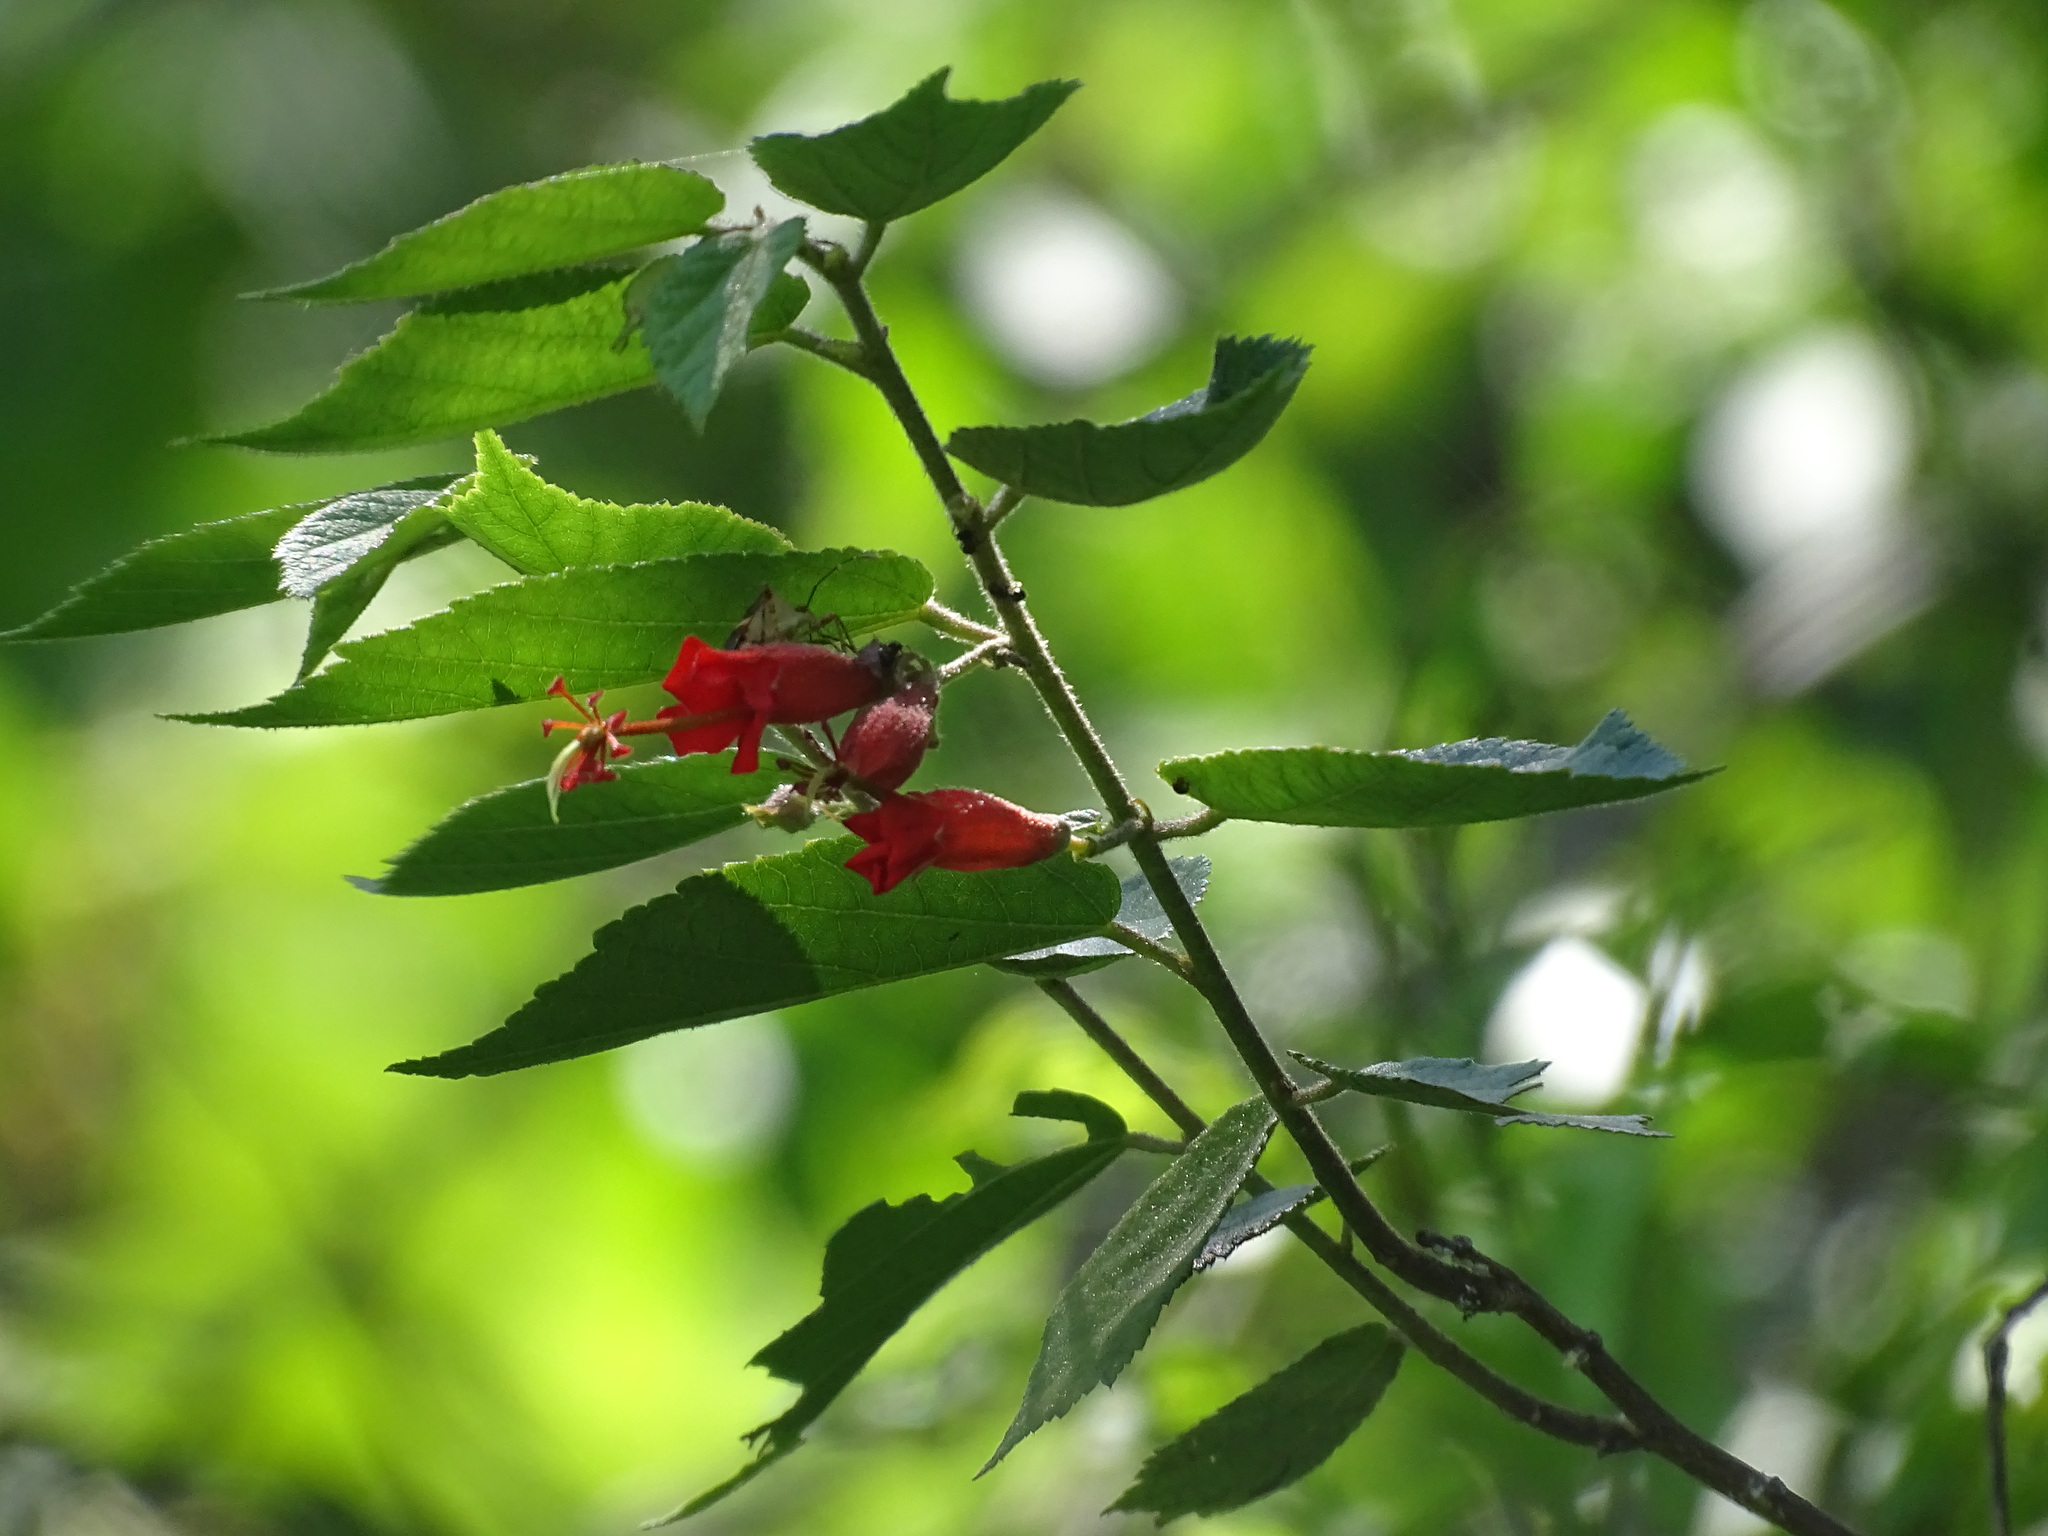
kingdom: Plantae
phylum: Tracheophyta
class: Magnoliopsida
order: Malvales
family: Malvaceae
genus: Helicteres
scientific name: Helicteres guazumifolia
